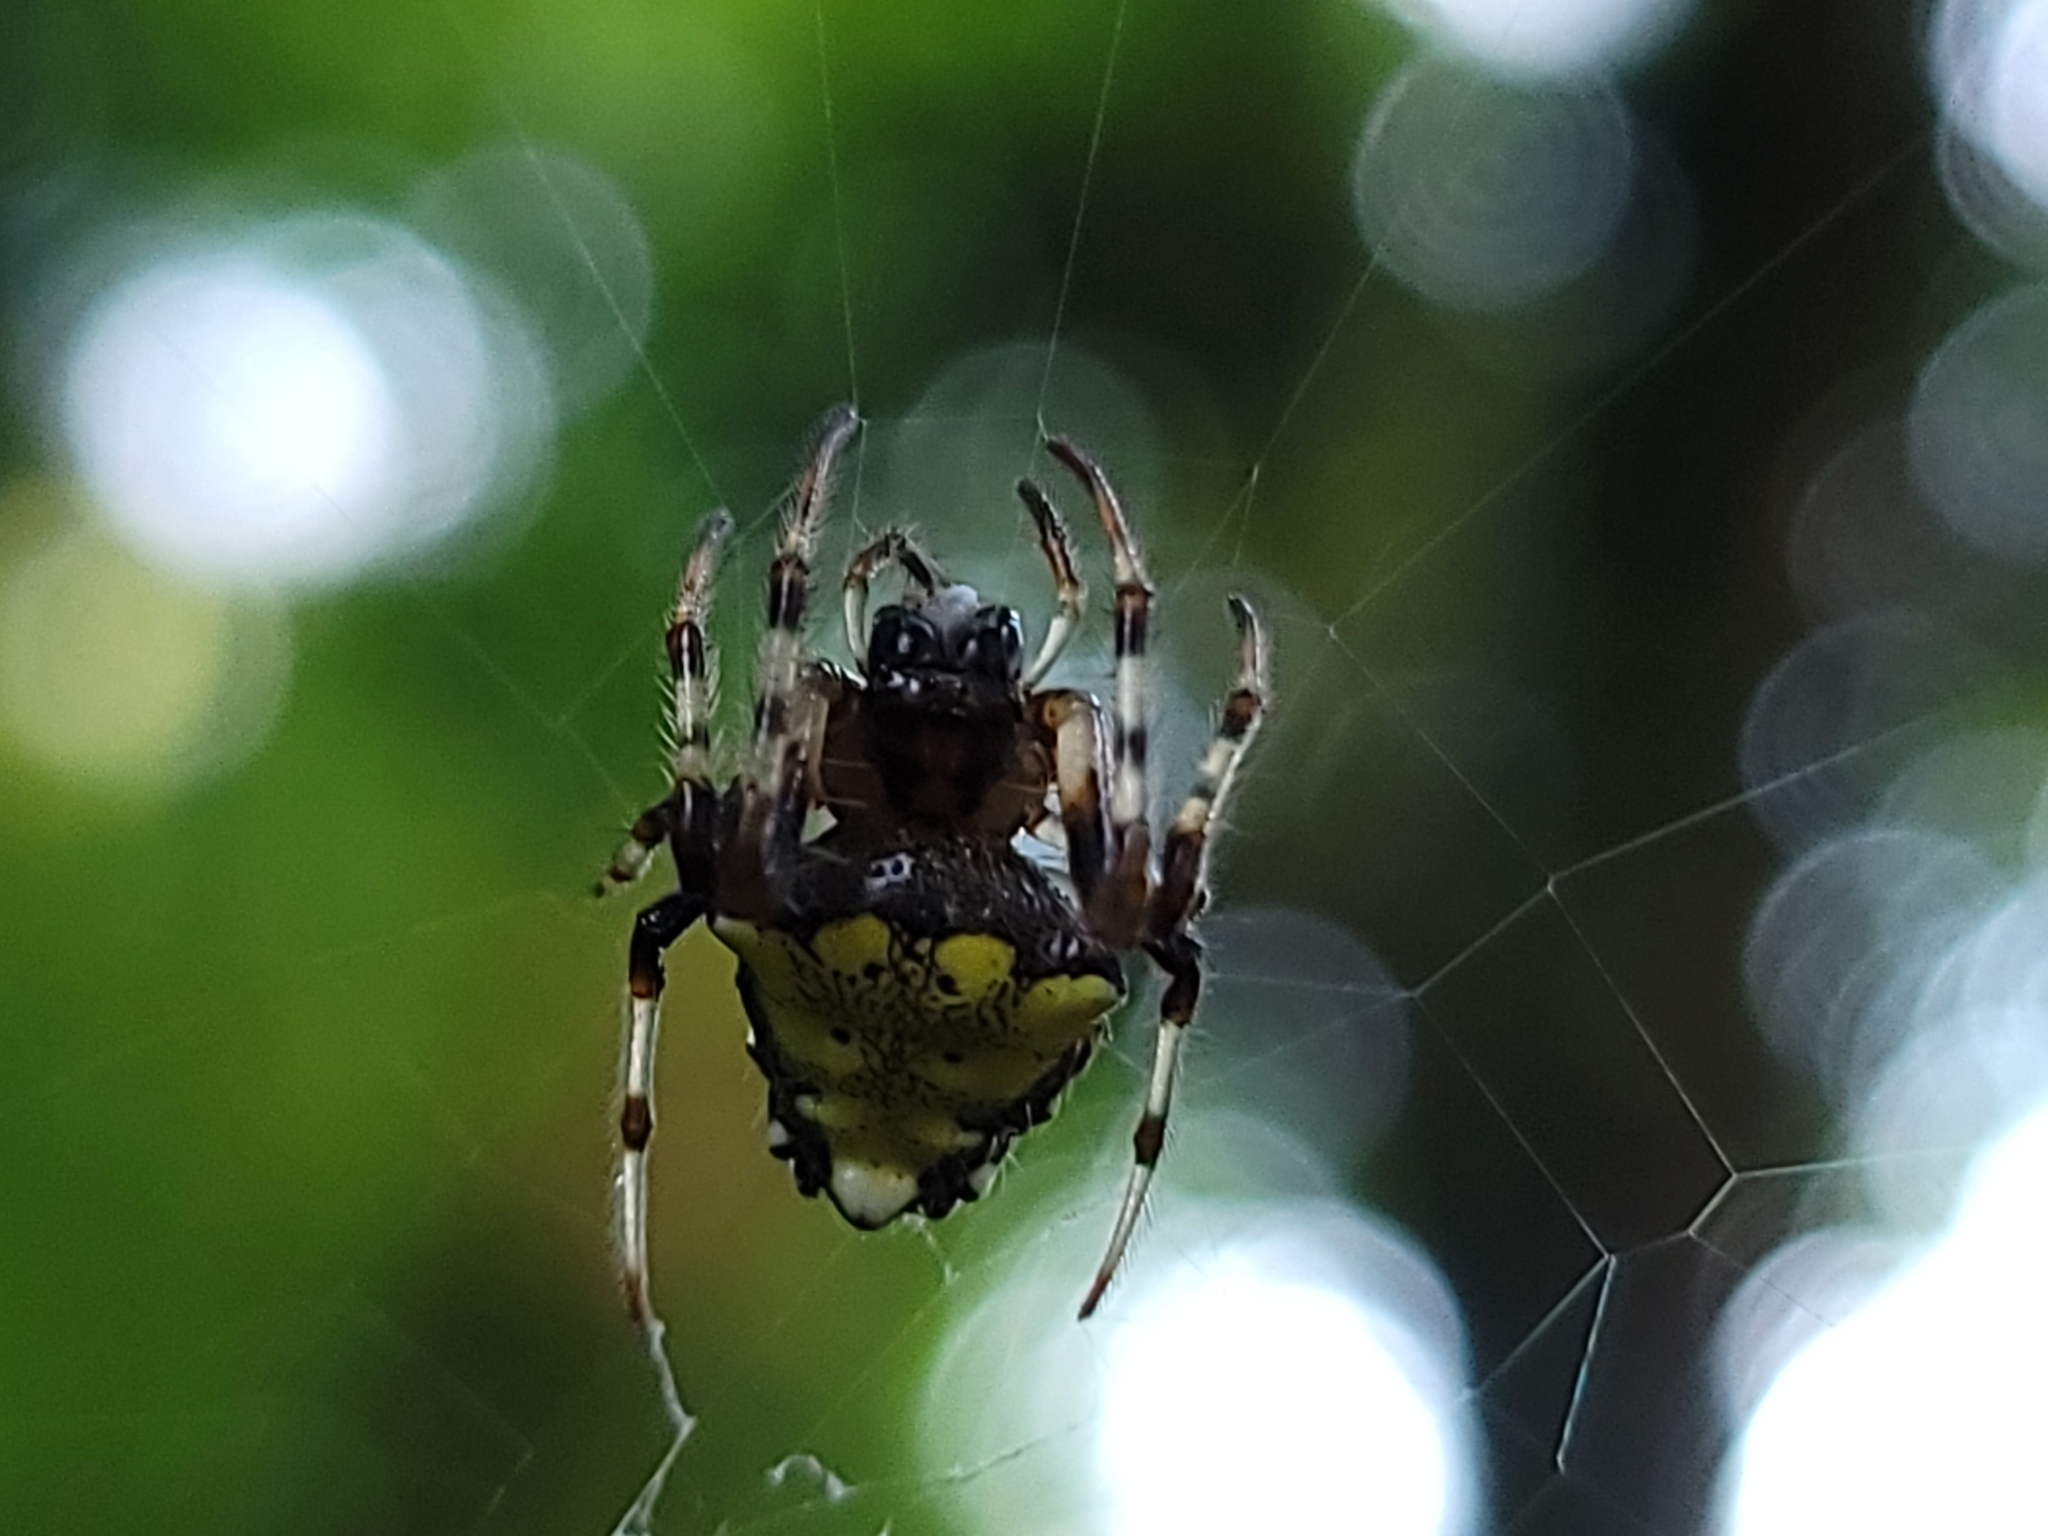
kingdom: Animalia
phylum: Arthropoda
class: Arachnida
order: Araneae
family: Araneidae
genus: Verrucosa
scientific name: Verrucosa arenata
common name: Orb weavers
